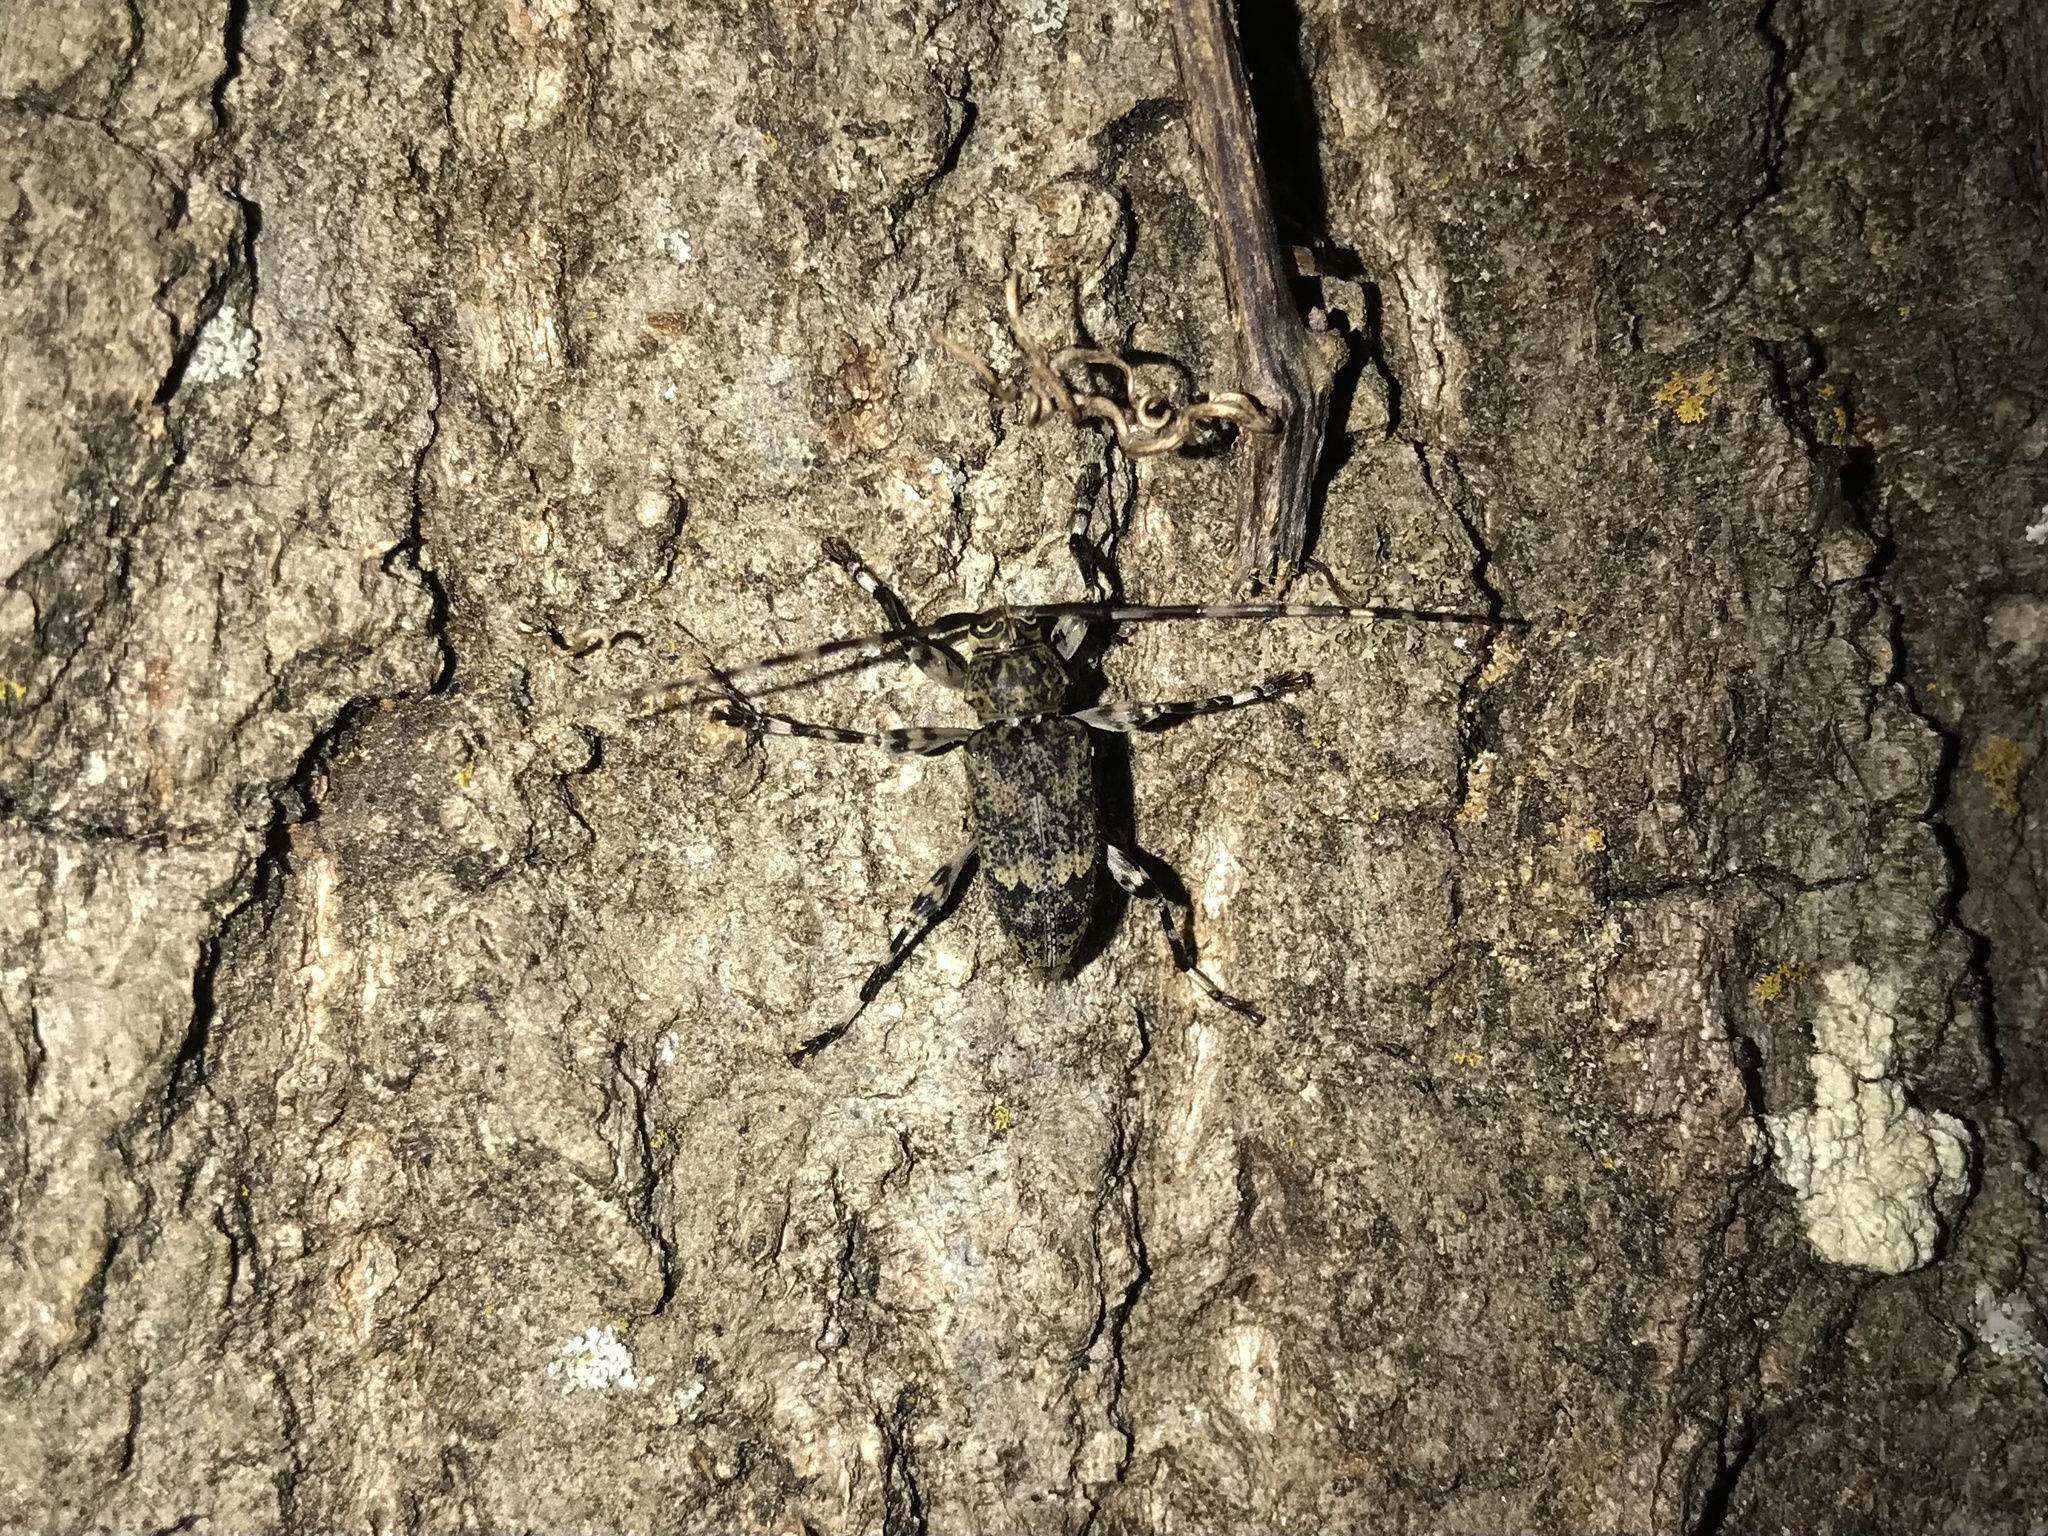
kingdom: Animalia
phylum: Arthropoda
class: Insecta
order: Coleoptera
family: Cerambycidae
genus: Graphisurus
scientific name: Graphisurus fasciatus
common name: Banded graphisurus
